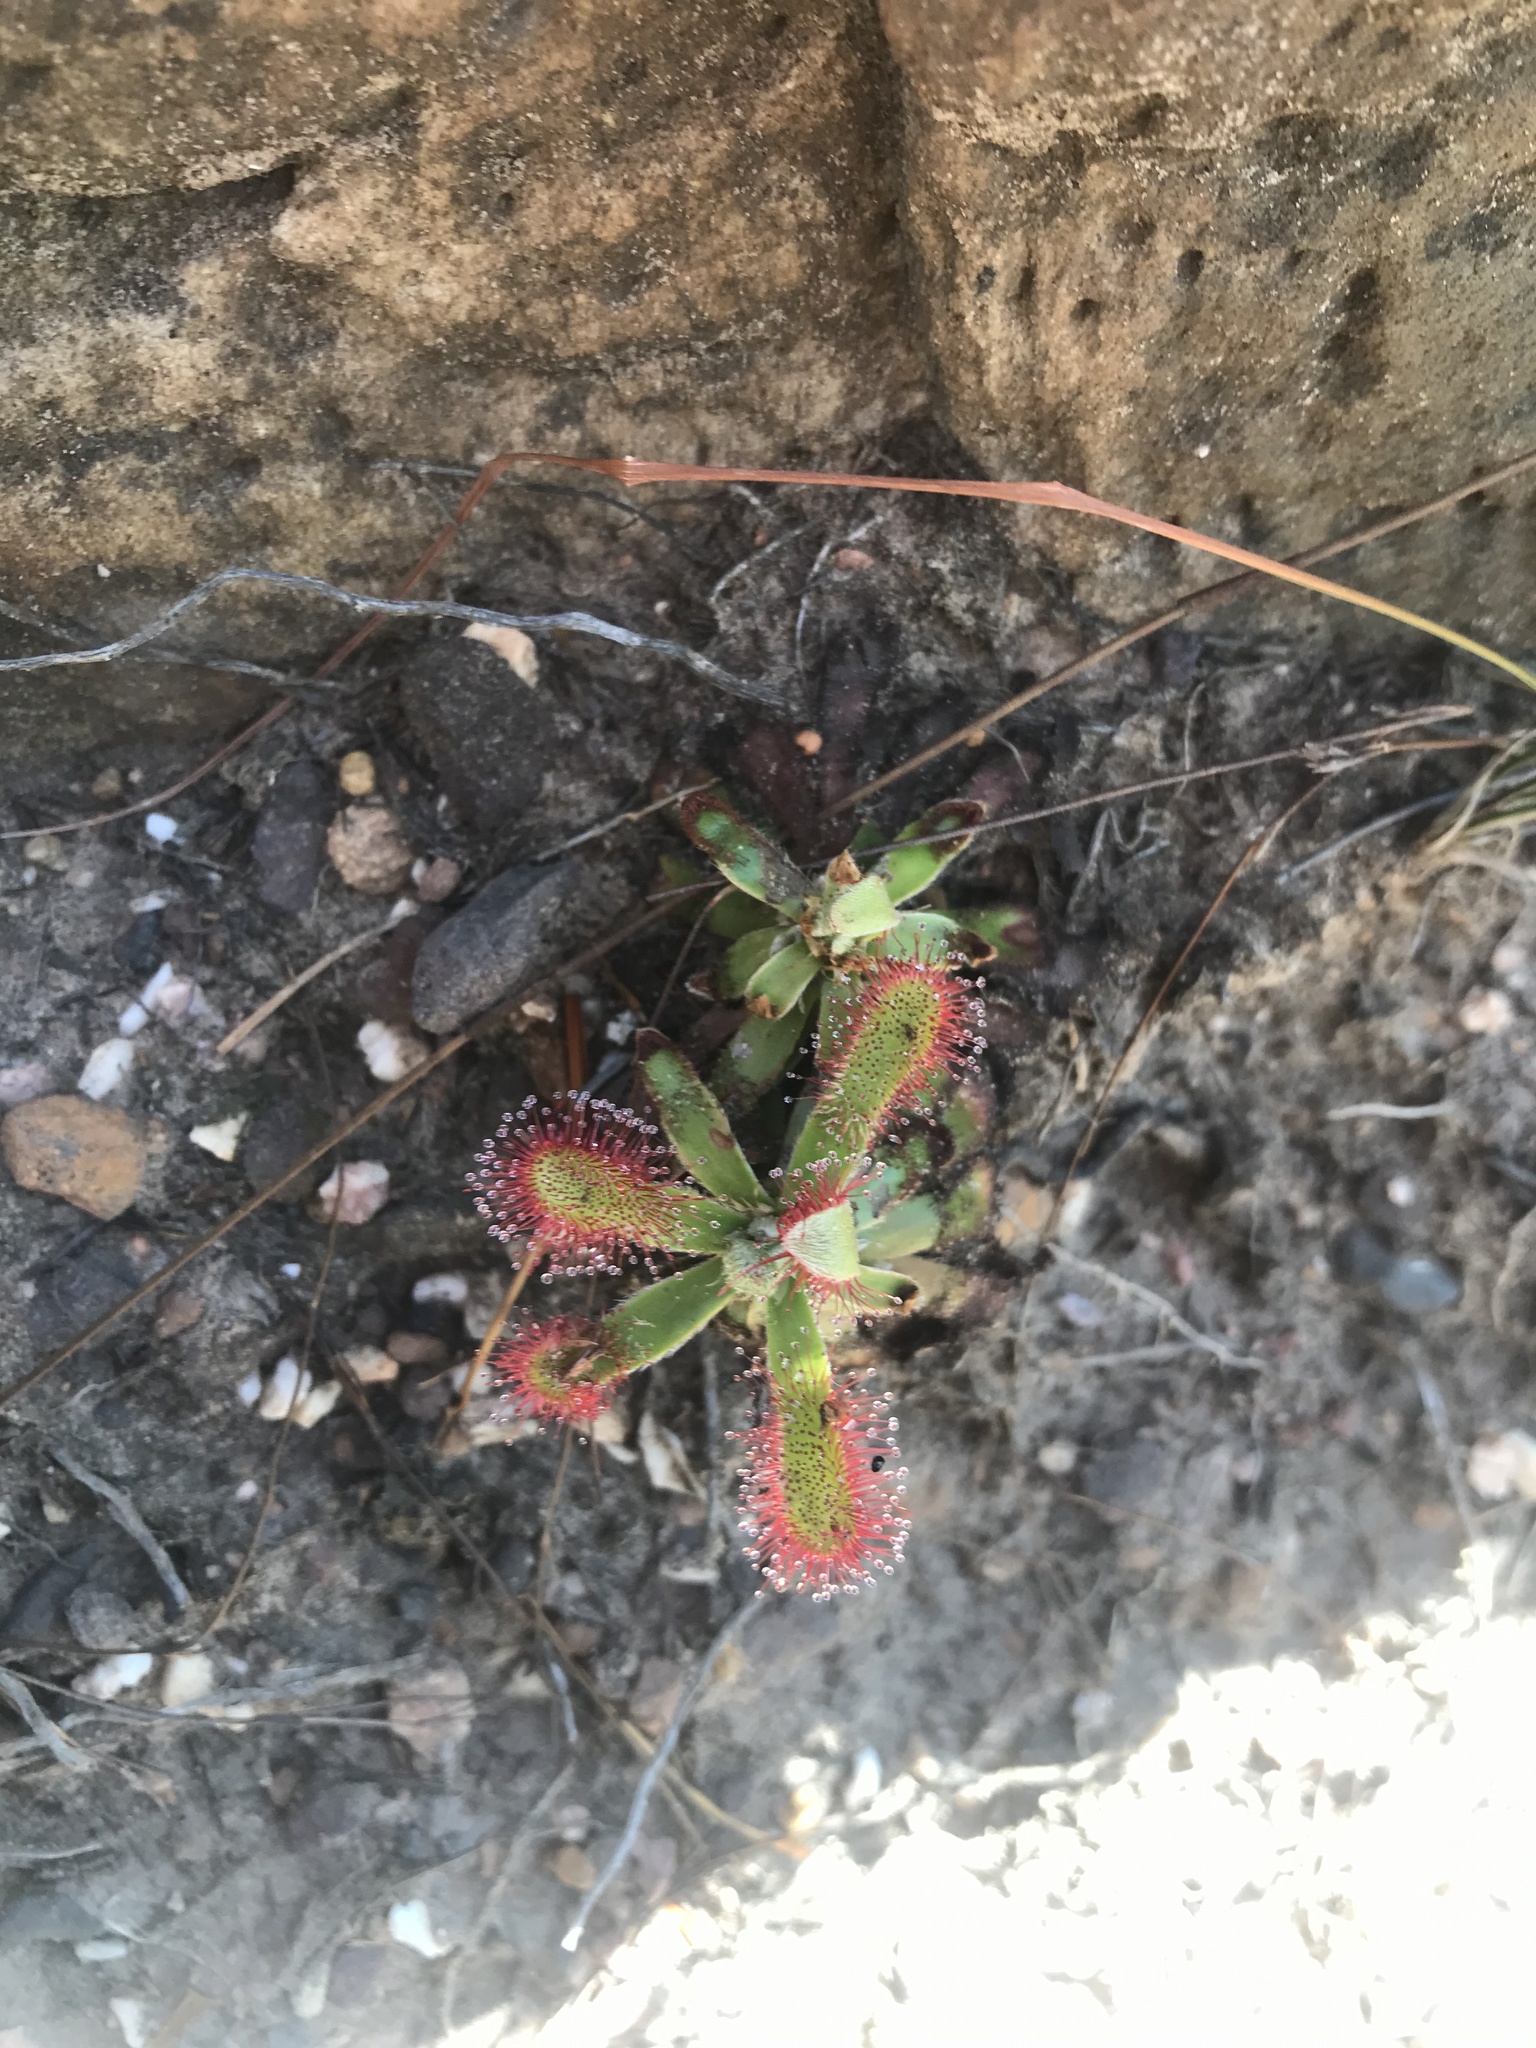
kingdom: Plantae
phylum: Tracheophyta
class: Magnoliopsida
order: Caryophyllales
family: Droseraceae
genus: Drosera
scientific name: Drosera aliciae
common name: Alice sundew
